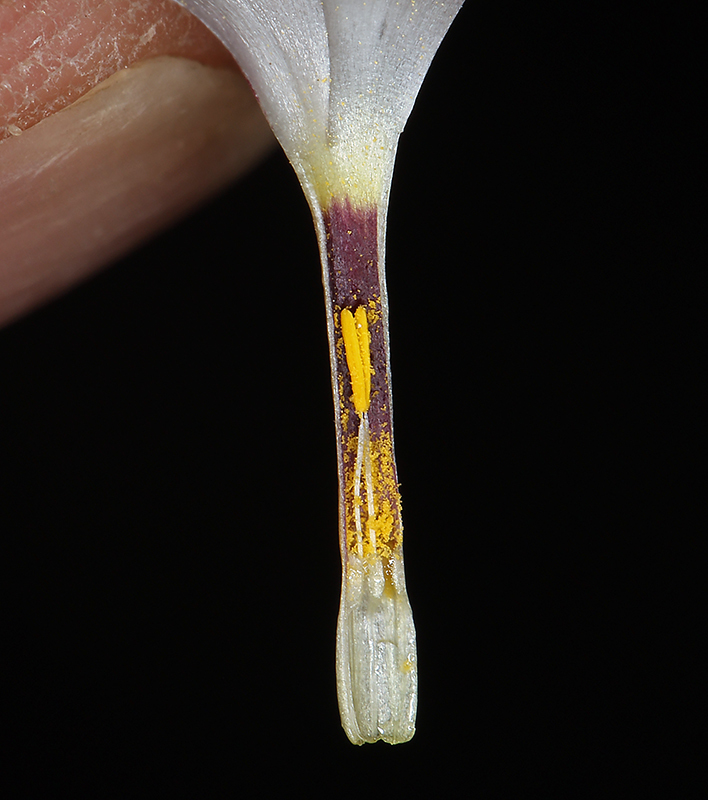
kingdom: Plantae
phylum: Tracheophyta
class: Magnoliopsida
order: Ericales
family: Polemoniaceae
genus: Linanthus
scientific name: Linanthus dichotomus
